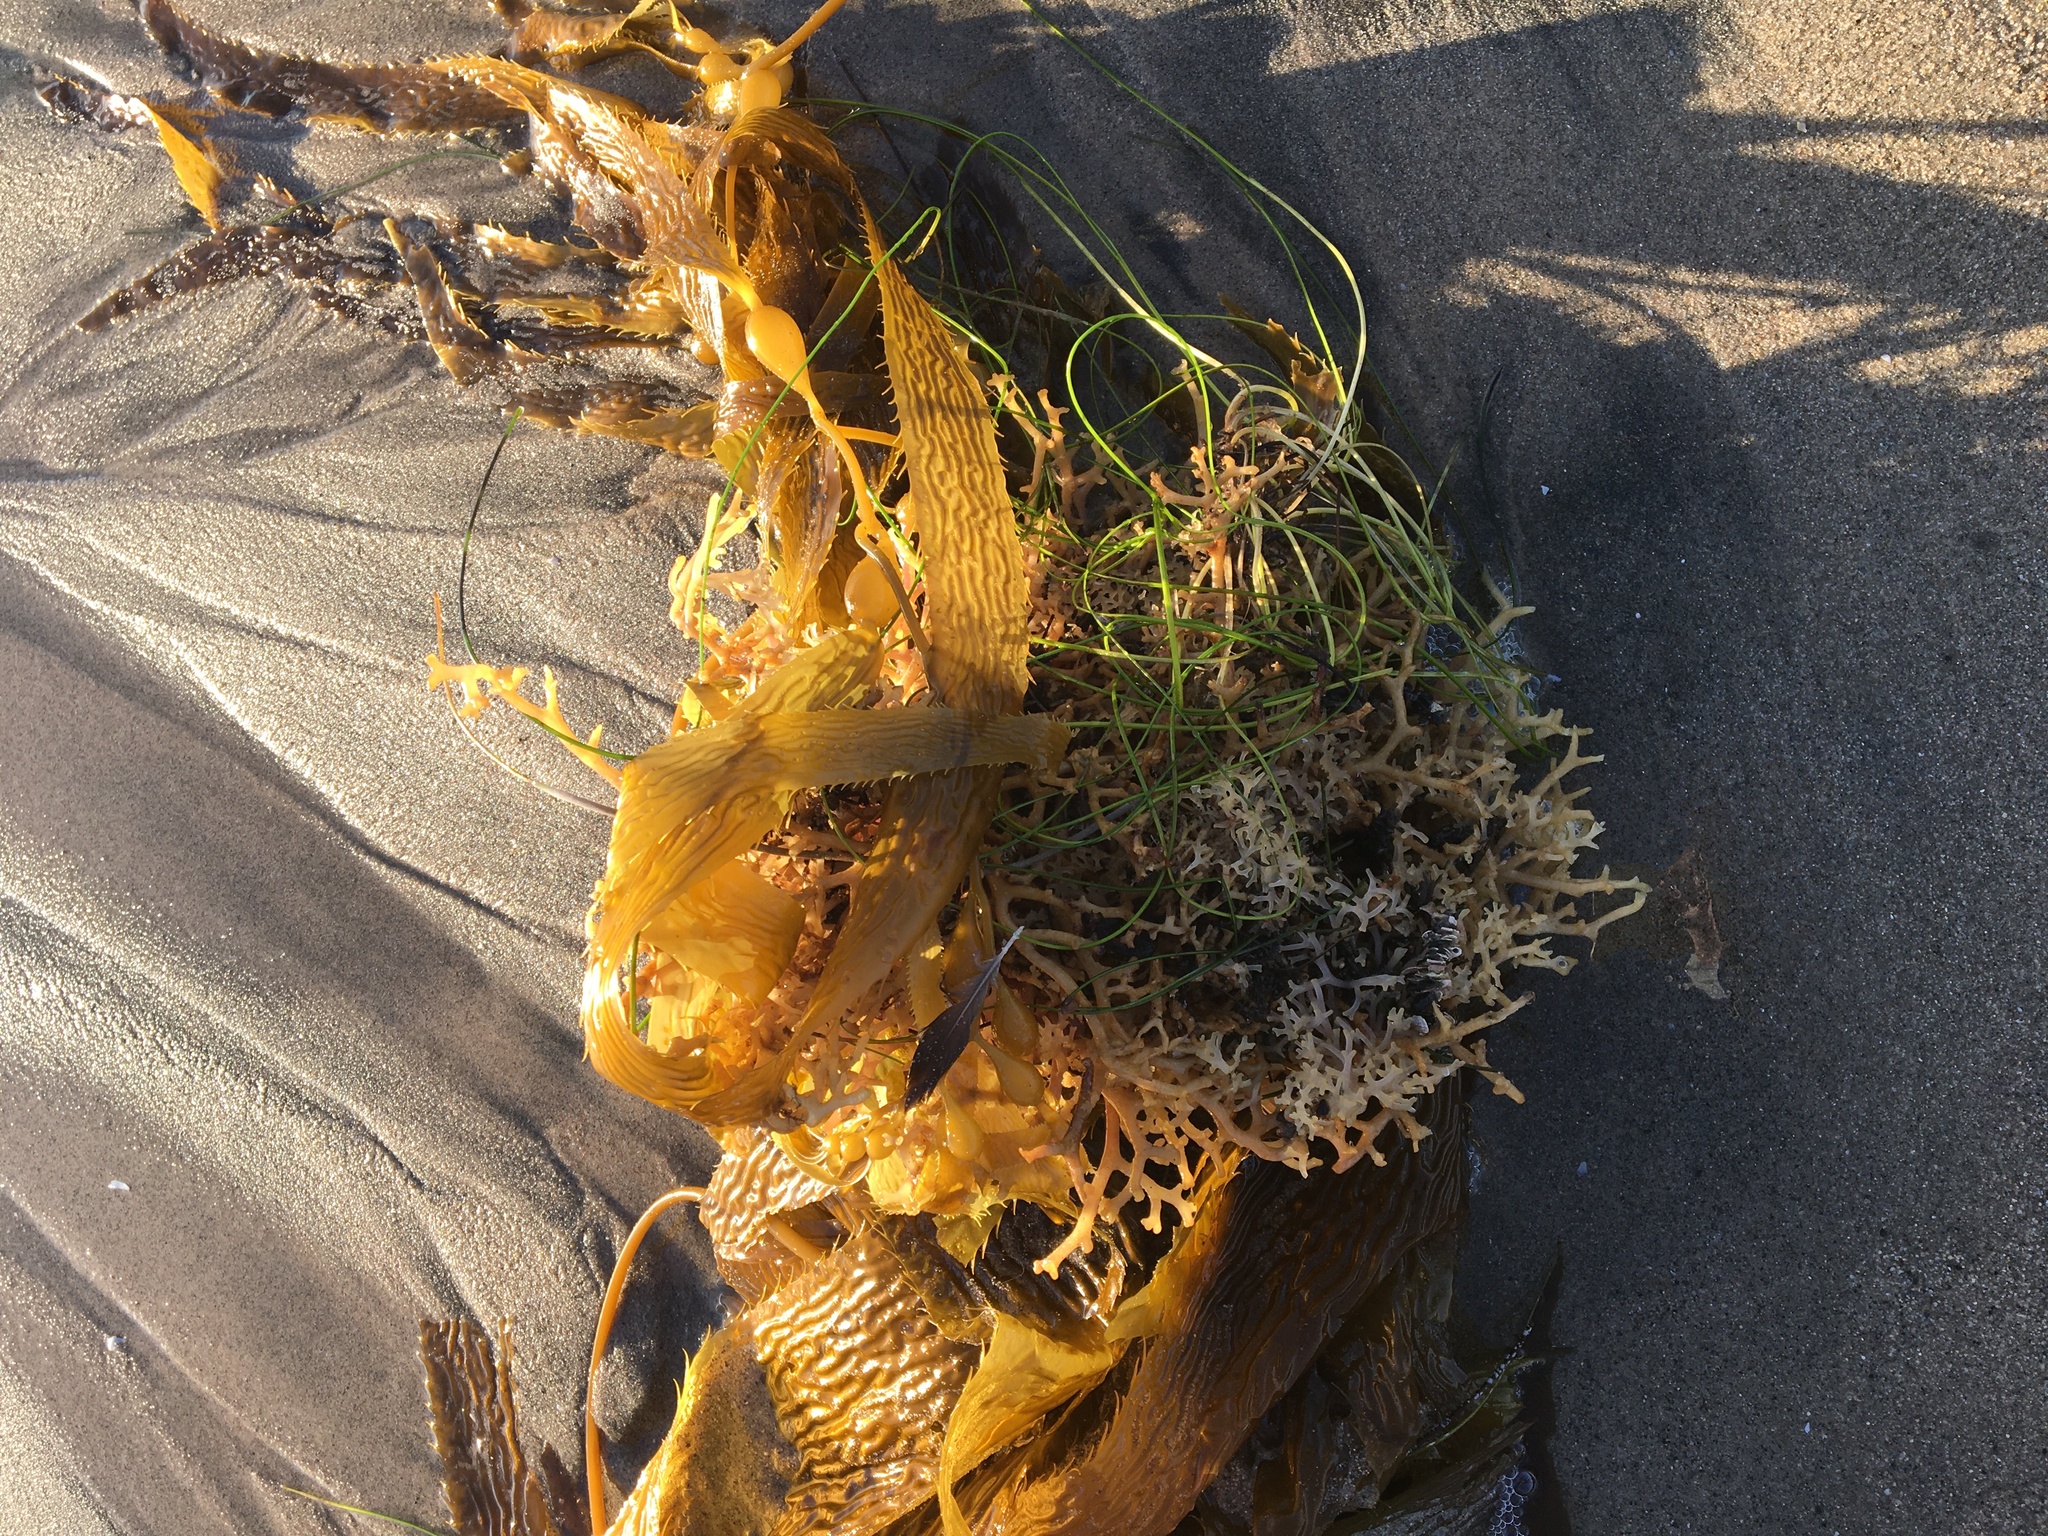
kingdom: Chromista
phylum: Ochrophyta
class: Phaeophyceae
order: Laminariales
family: Laminariaceae
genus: Macrocystis
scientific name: Macrocystis pyrifera
